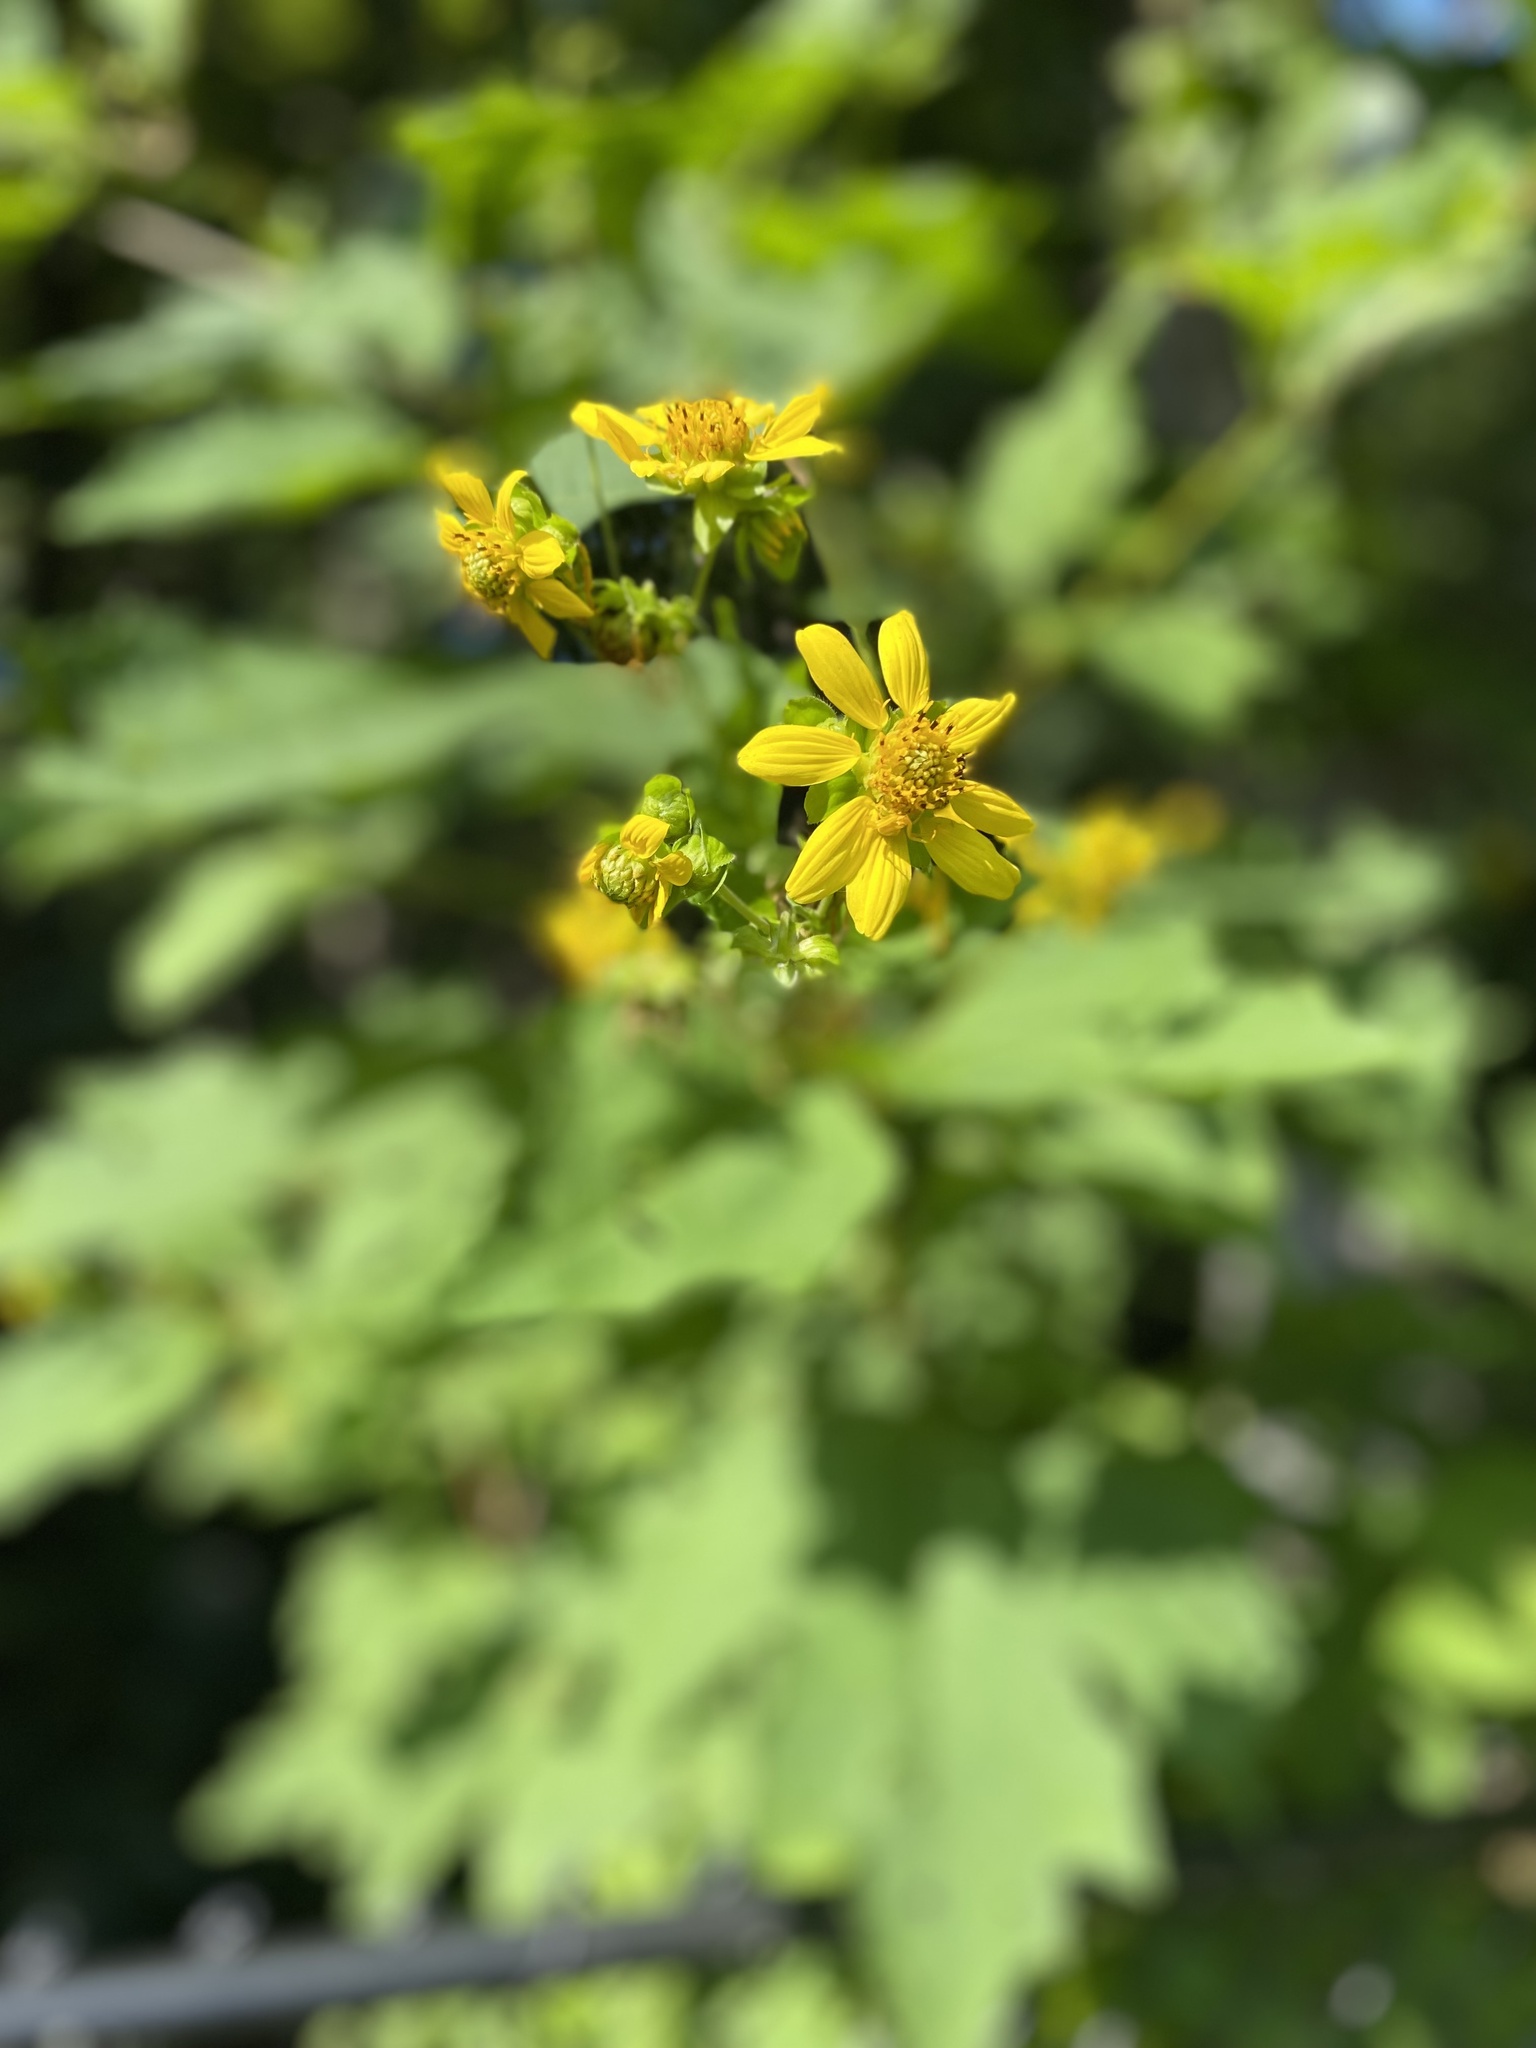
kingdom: Plantae
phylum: Tracheophyta
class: Magnoliopsida
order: Asterales
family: Asteraceae
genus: Smallanthus
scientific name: Smallanthus uvedalia
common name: Bear's-foot
